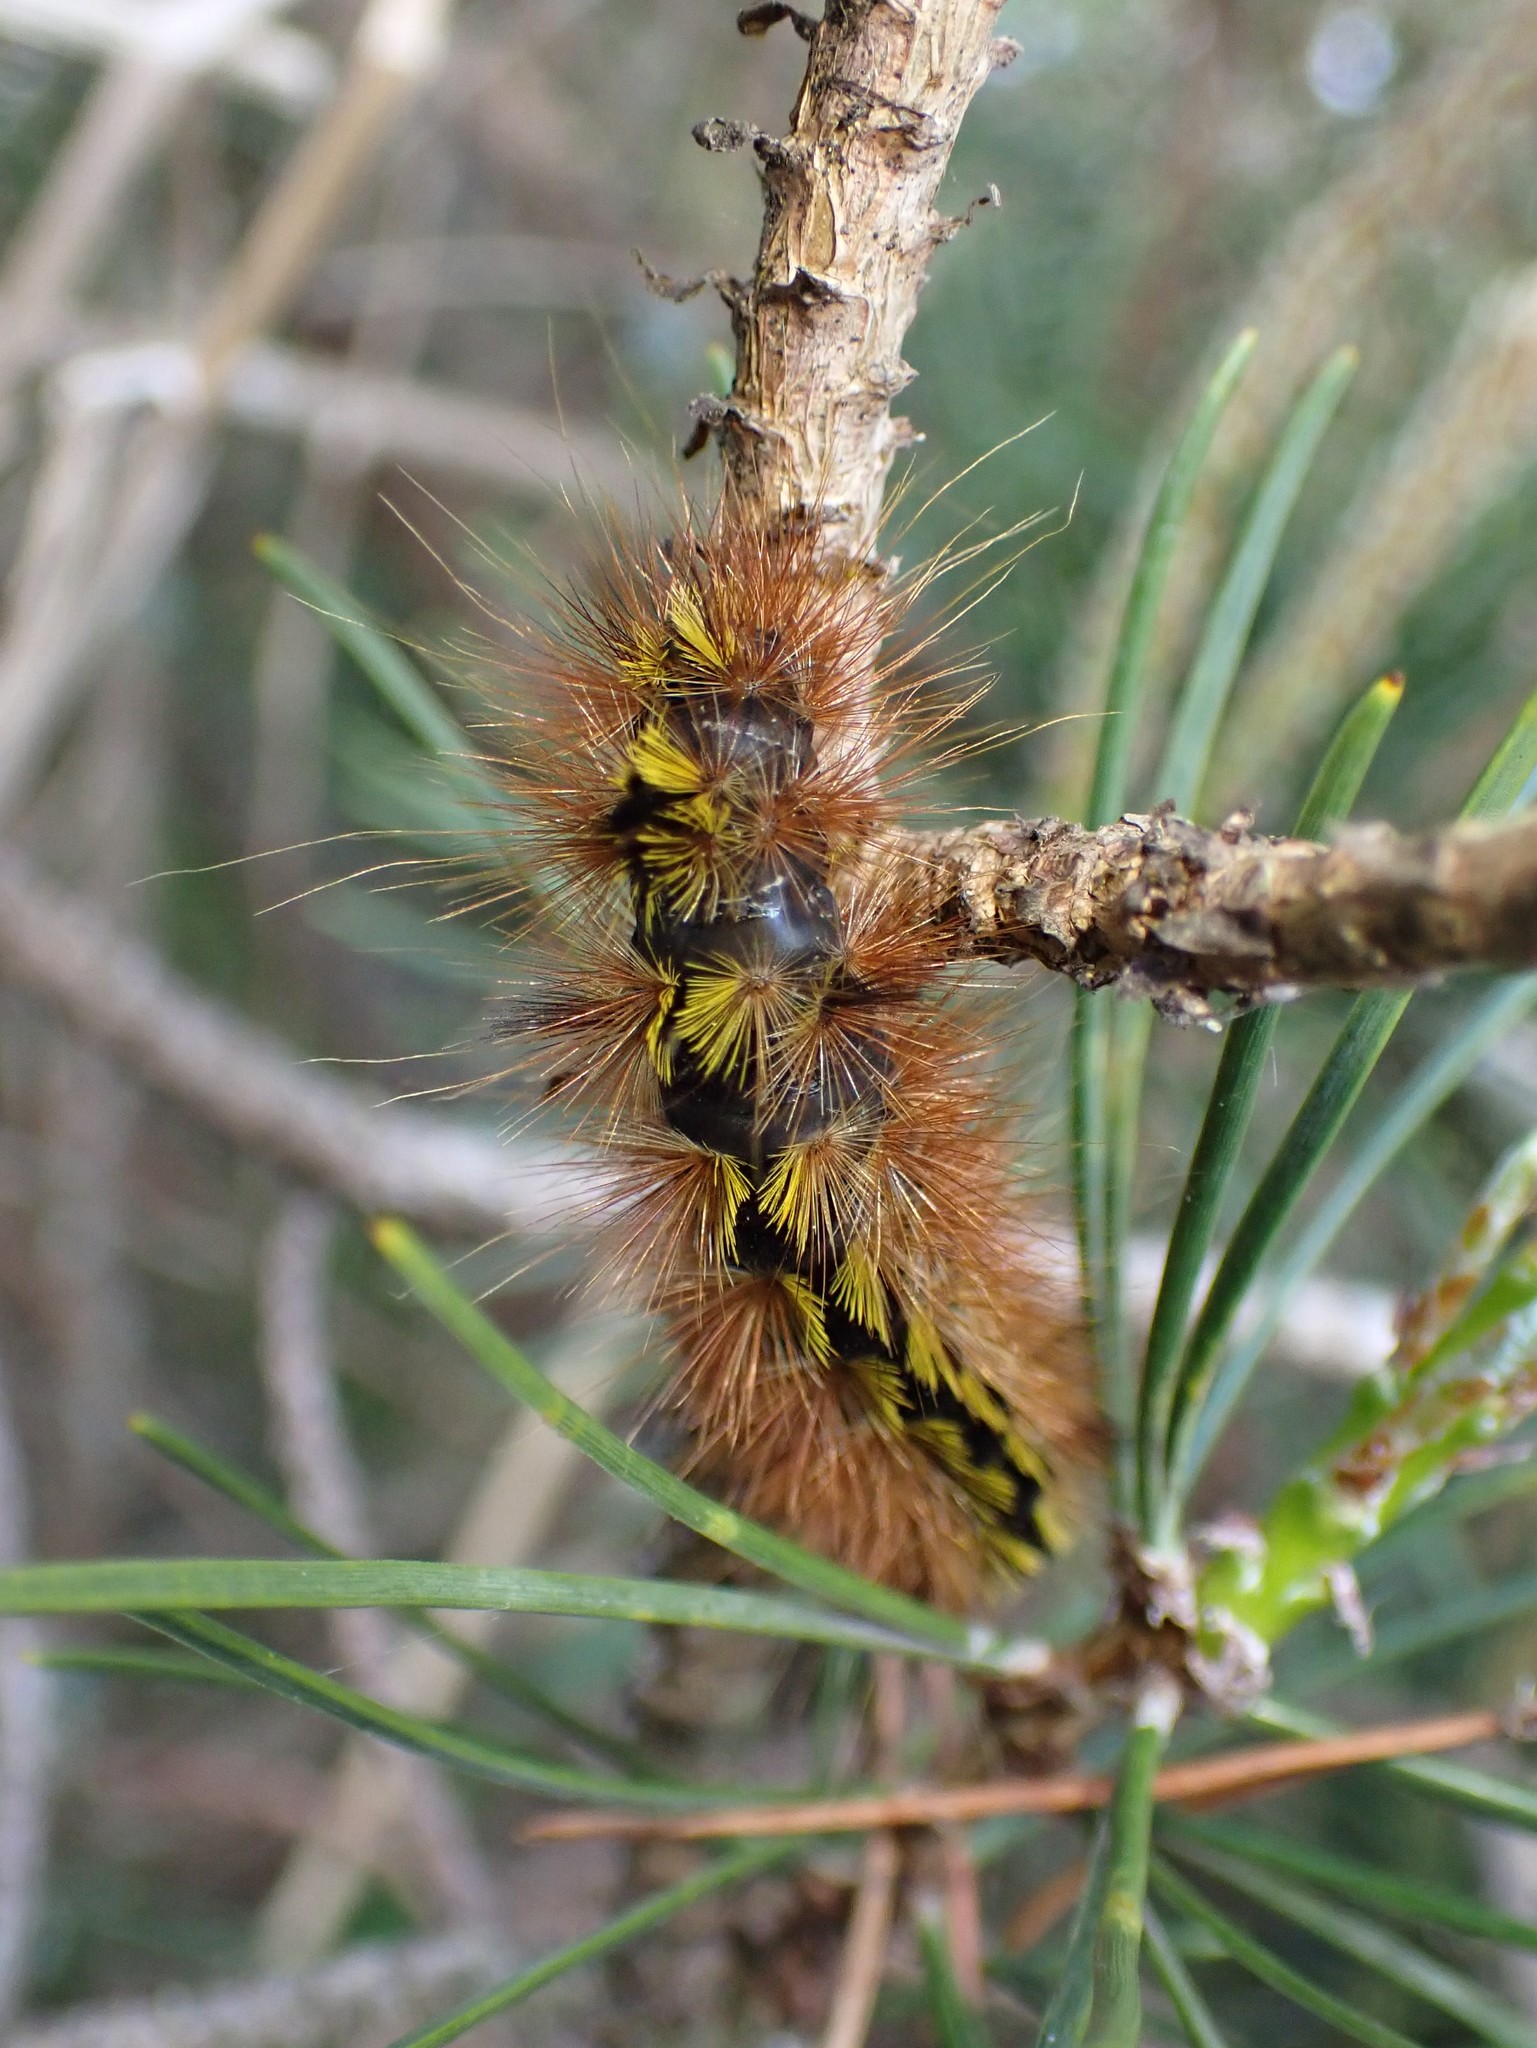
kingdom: Animalia
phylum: Arthropoda
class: Insecta
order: Lepidoptera
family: Erebidae
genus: Lophocampa
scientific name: Lophocampa argentata
